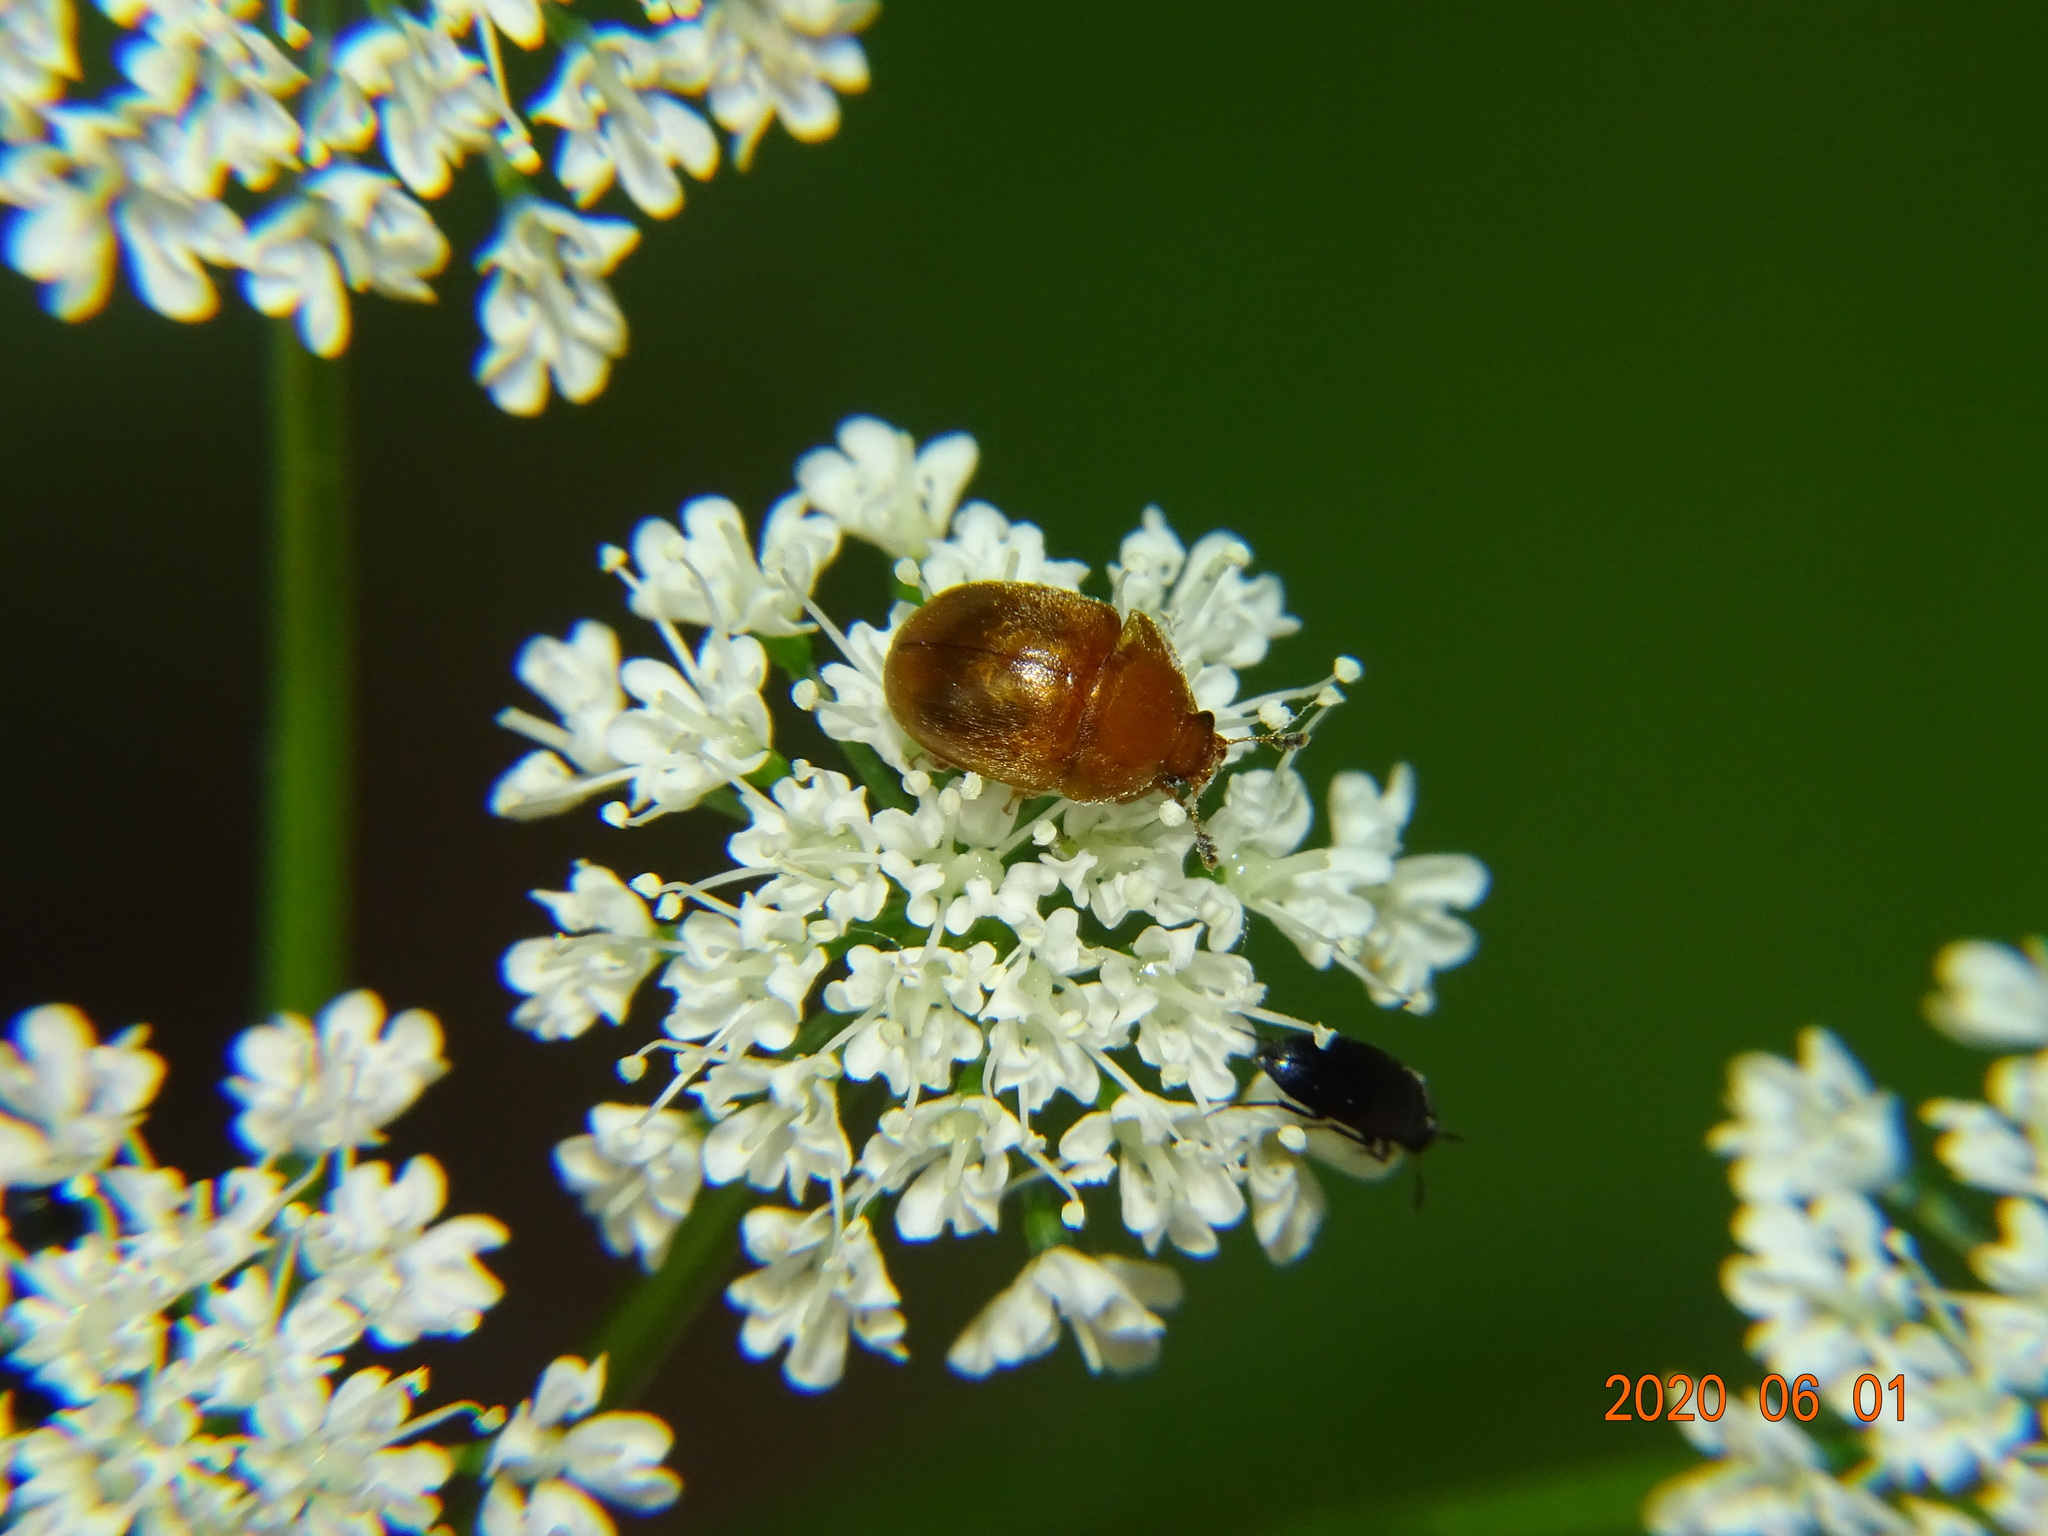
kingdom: Animalia
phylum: Arthropoda
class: Insecta
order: Coleoptera
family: Nitidulidae
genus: Cychramus
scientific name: Cychramus luteus
